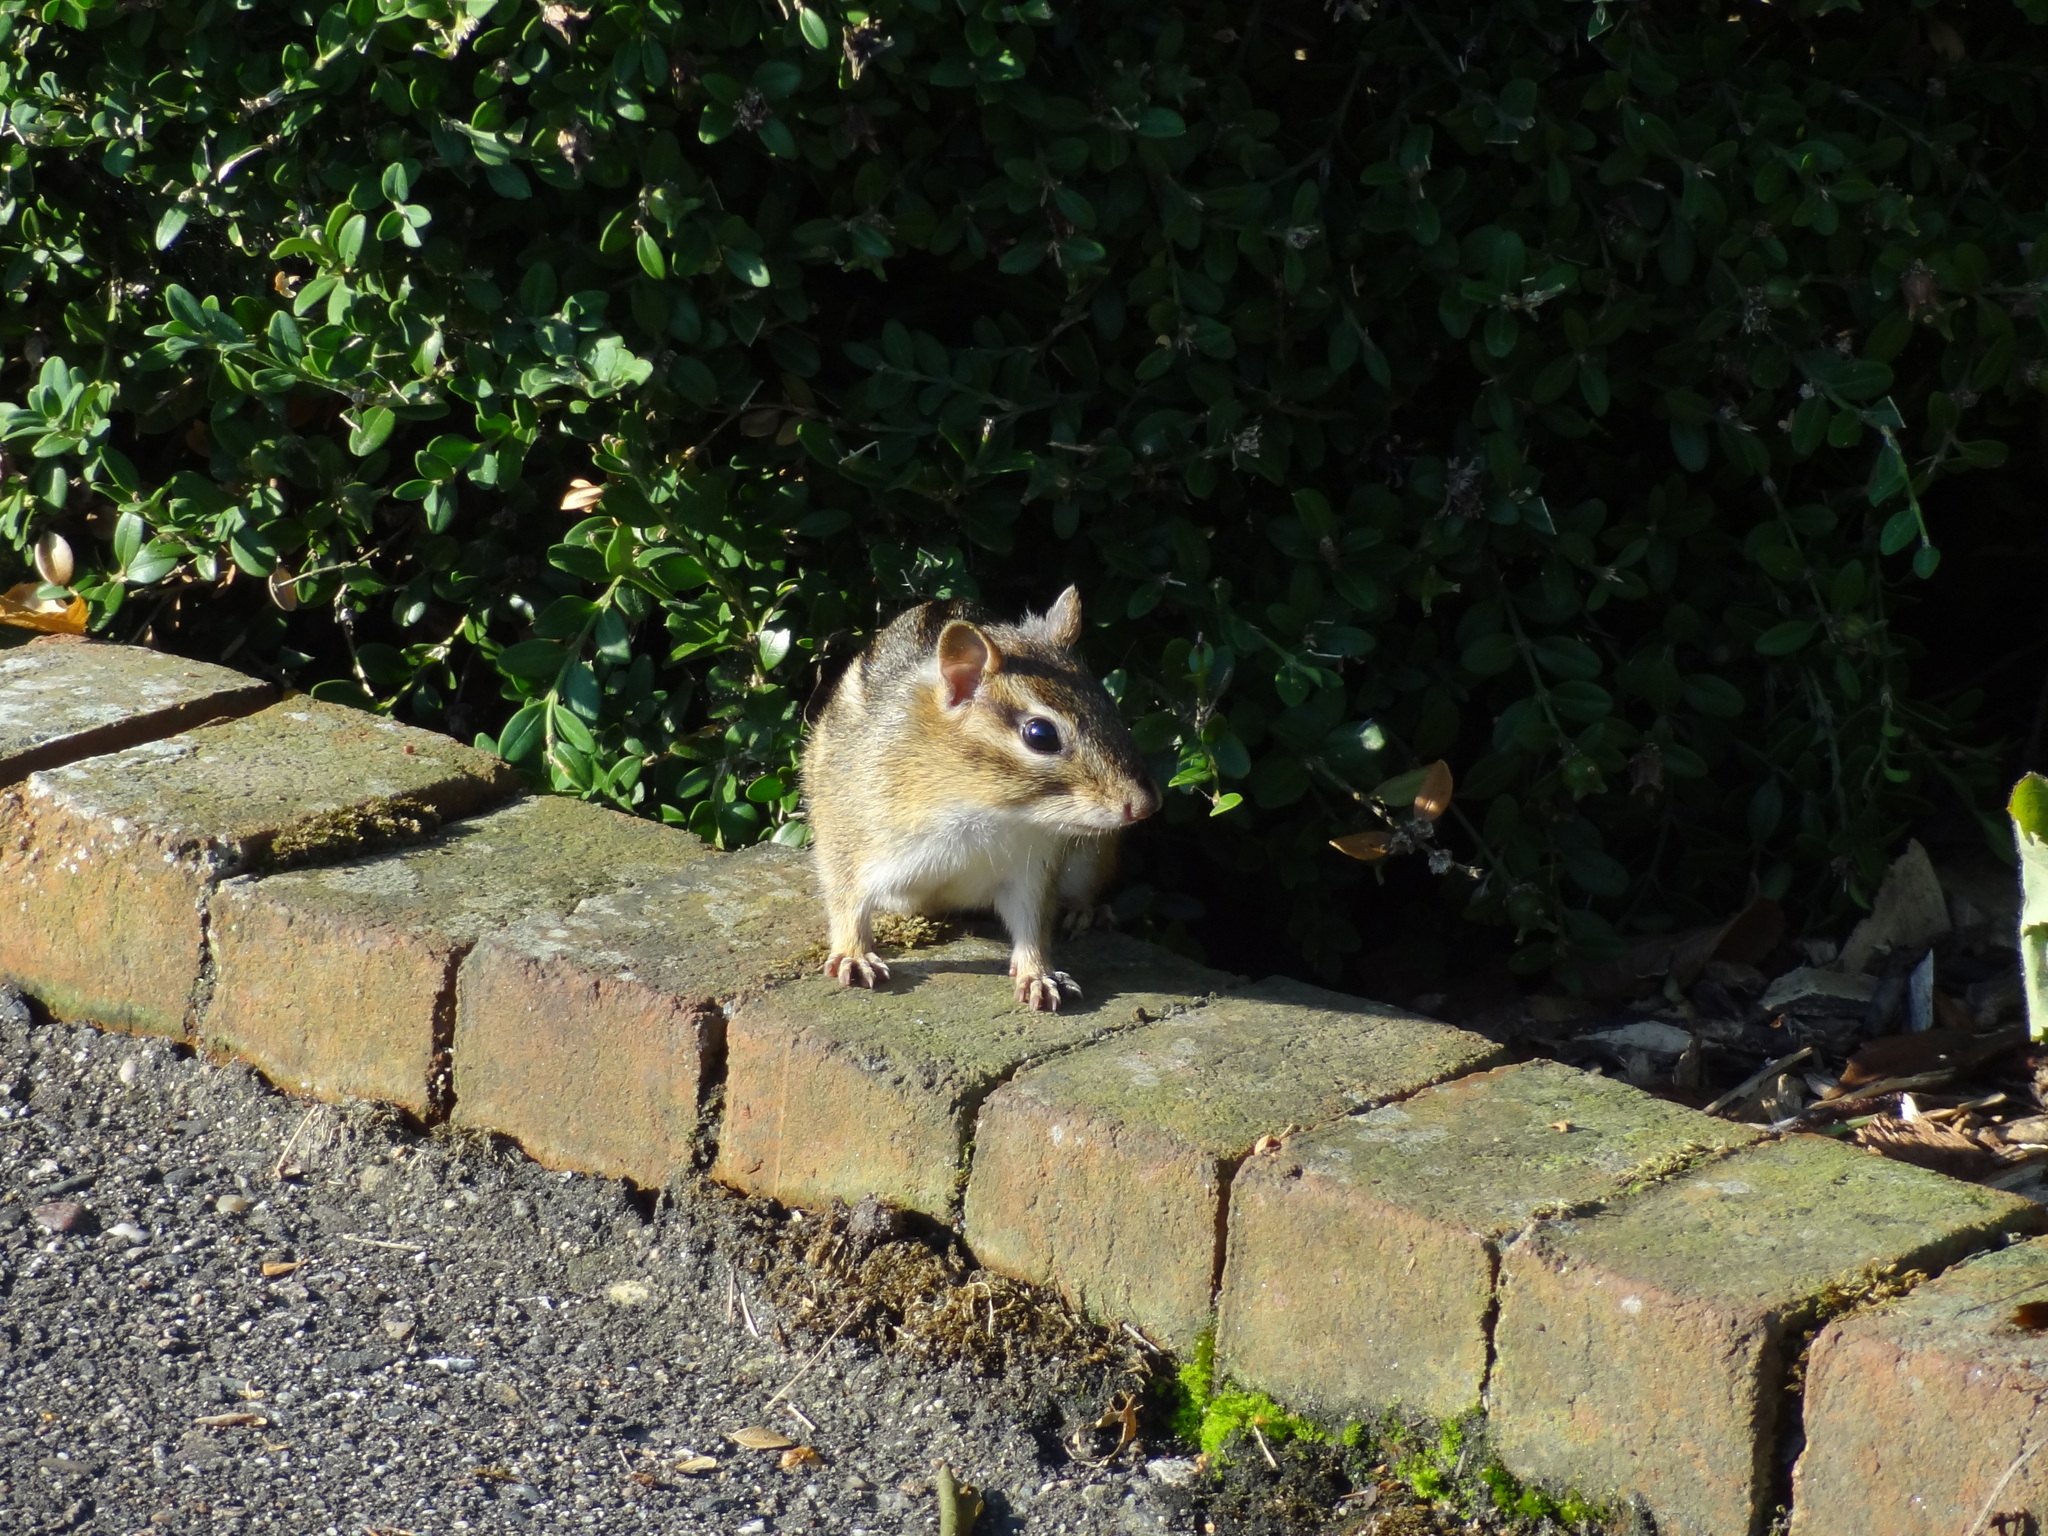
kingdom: Animalia
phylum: Chordata
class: Mammalia
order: Rodentia
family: Sciuridae
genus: Tamias
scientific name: Tamias striatus
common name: Eastern chipmunk
